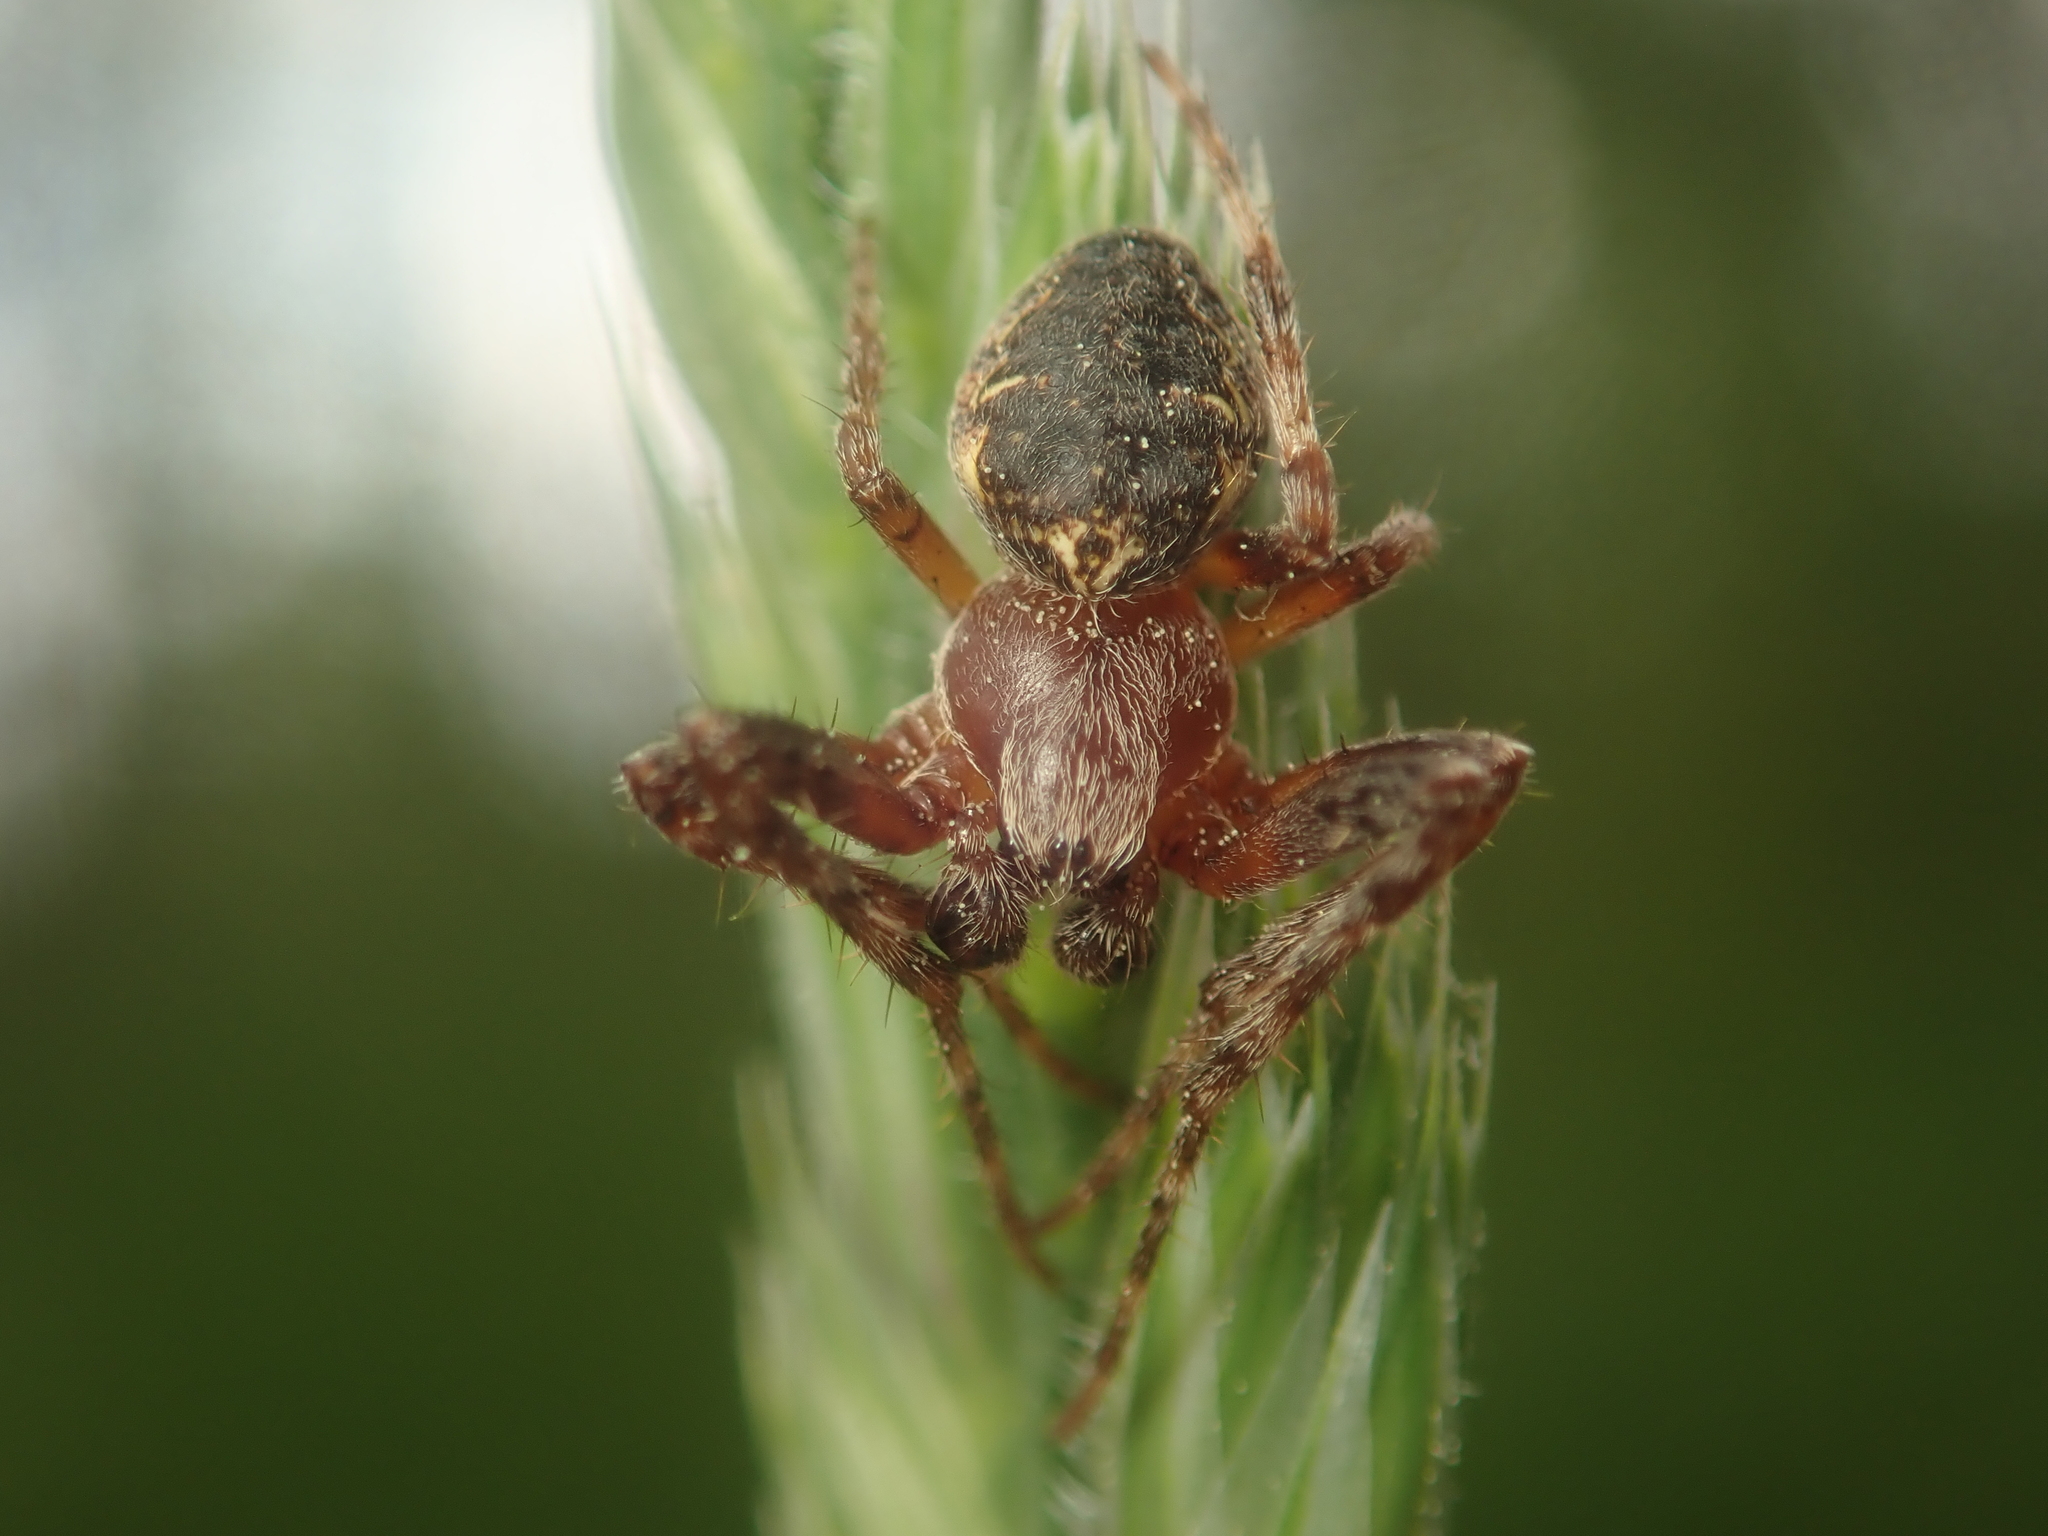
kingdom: Animalia
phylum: Arthropoda
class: Arachnida
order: Araneae
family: Araneidae
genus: Larinioides
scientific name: Larinioides patagiatus
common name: Ornamental orbweaver
